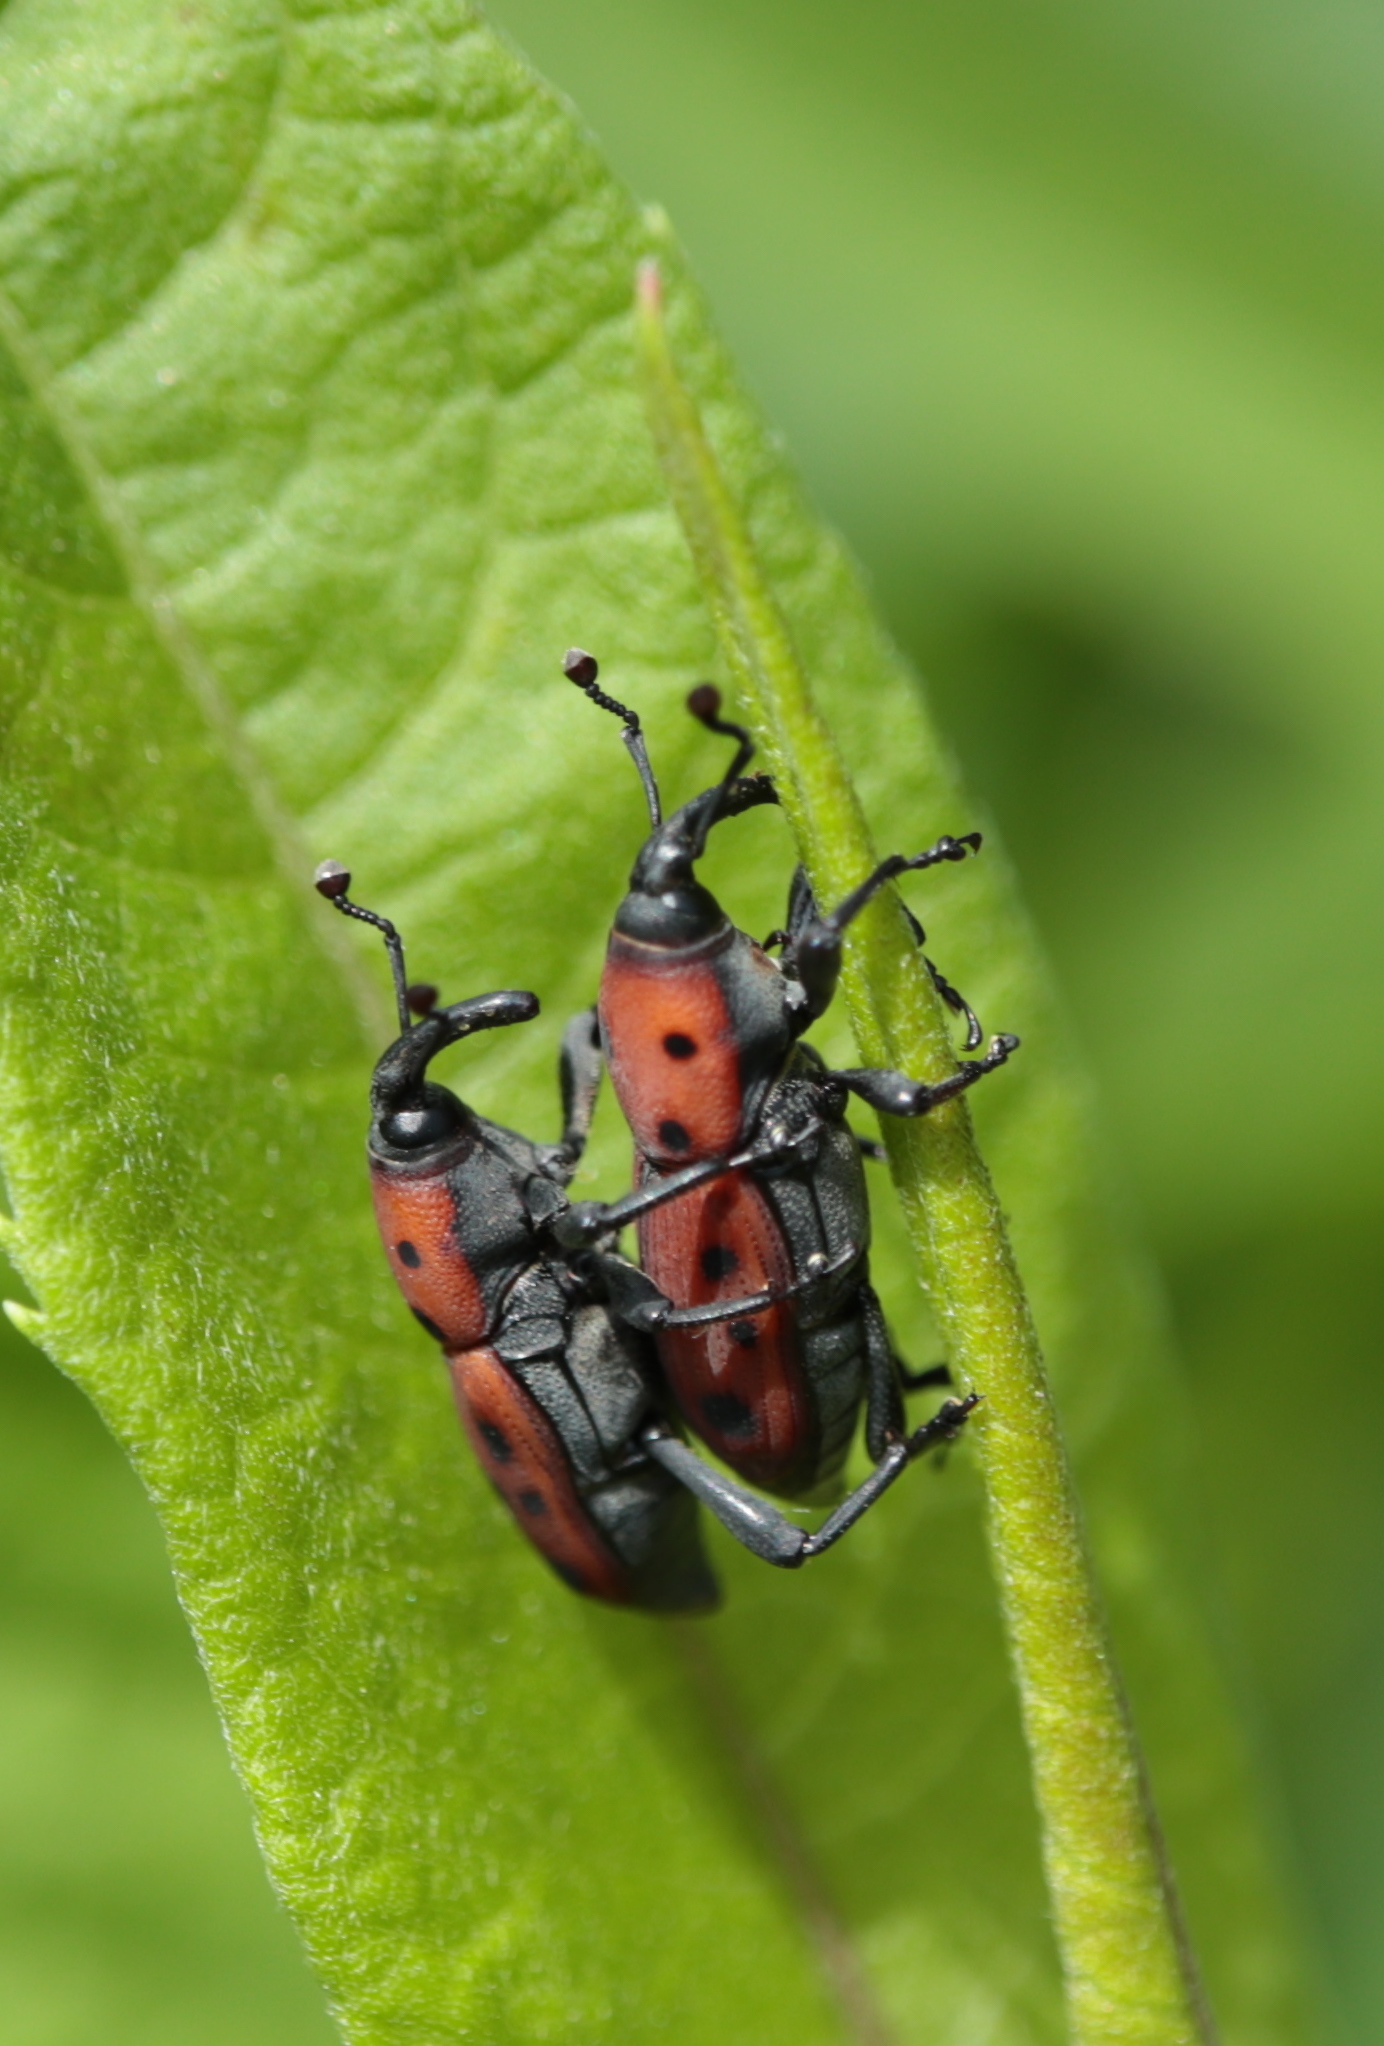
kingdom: Animalia
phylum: Arthropoda
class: Insecta
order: Coleoptera
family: Dryophthoridae
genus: Rhodobaenus
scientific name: Rhodobaenus tredecimpunctatus
